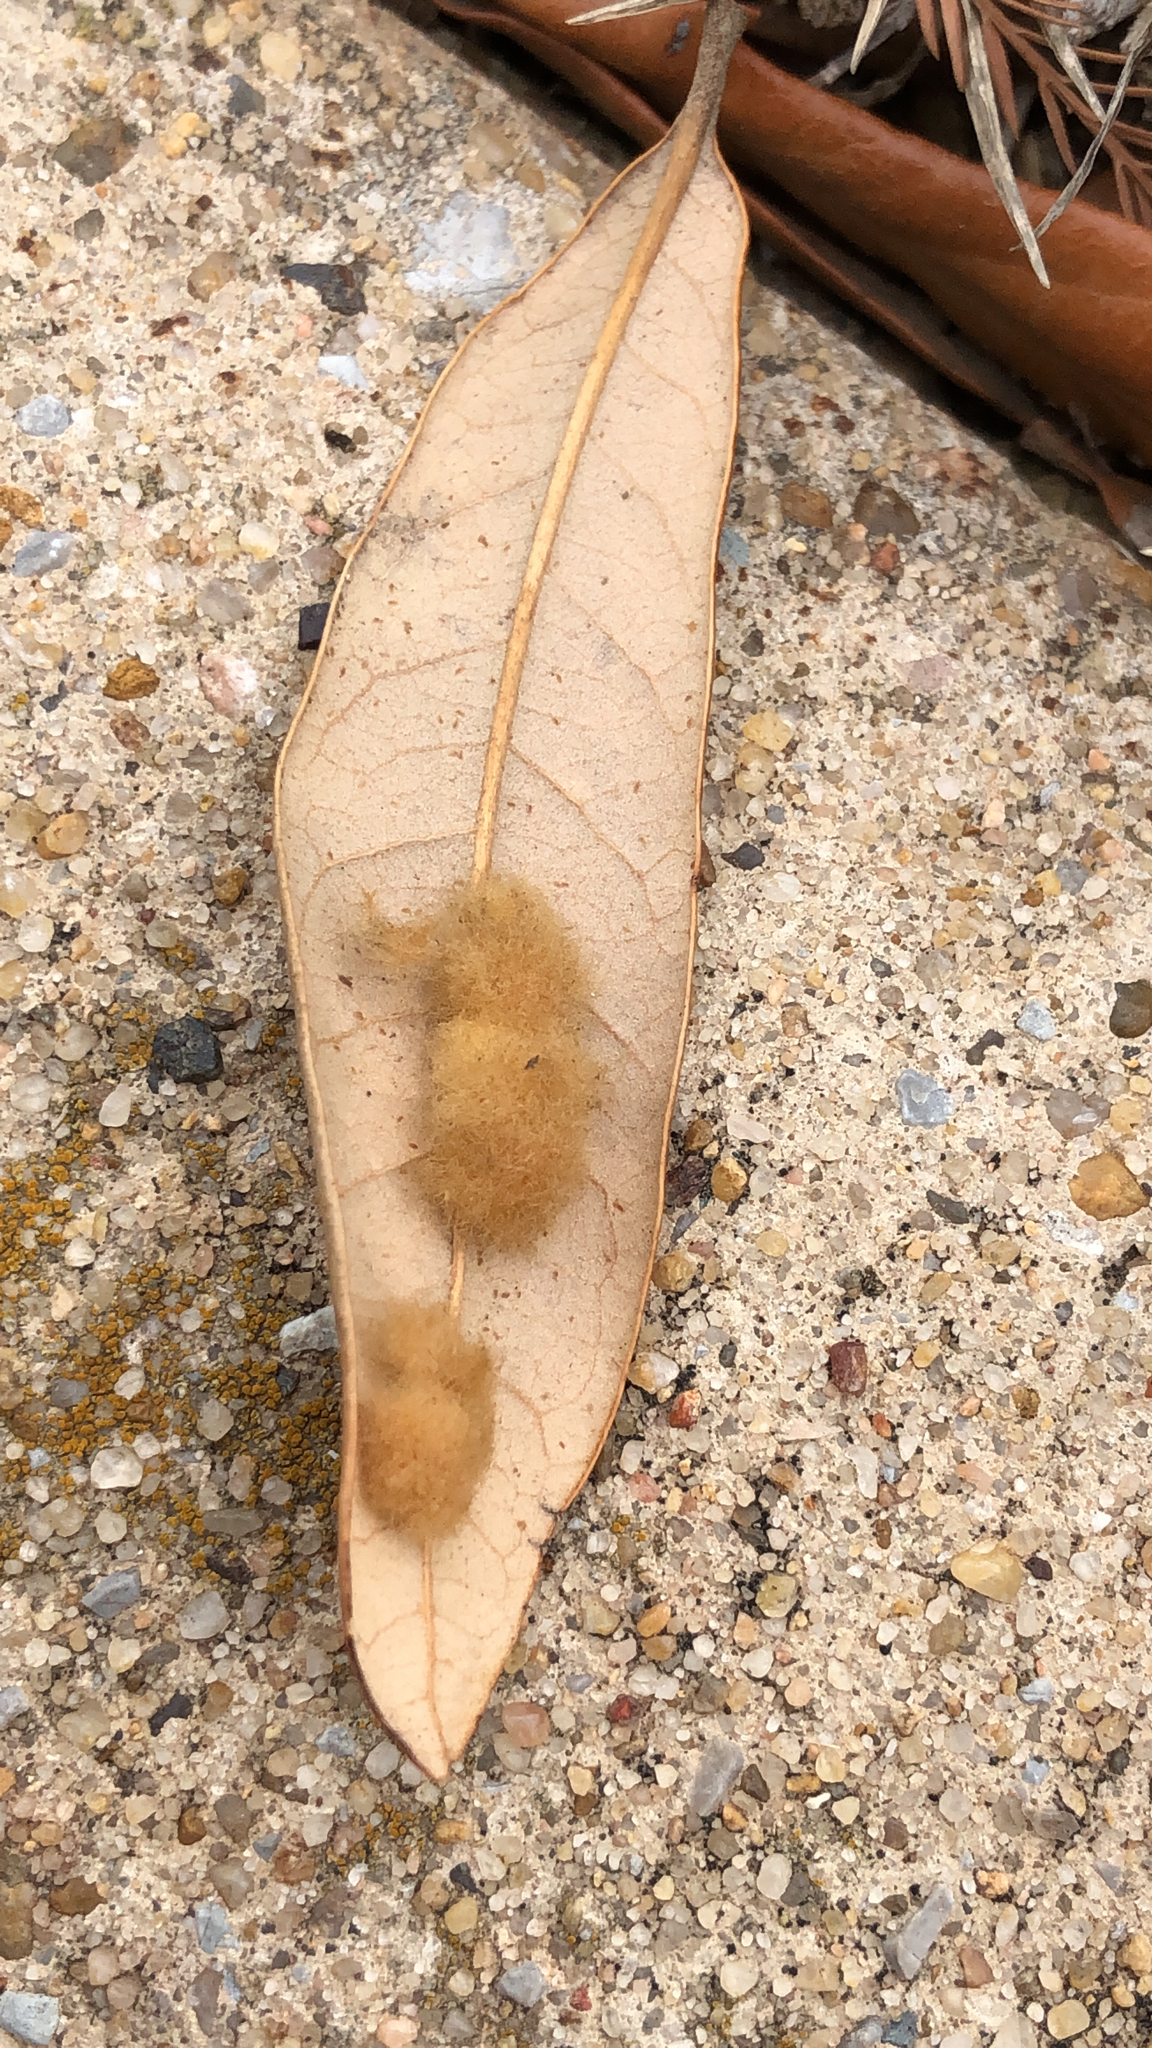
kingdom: Animalia
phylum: Arthropoda
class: Insecta
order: Hymenoptera
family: Cynipidae
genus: Andricus
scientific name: Andricus Druon quercuslanigerum
